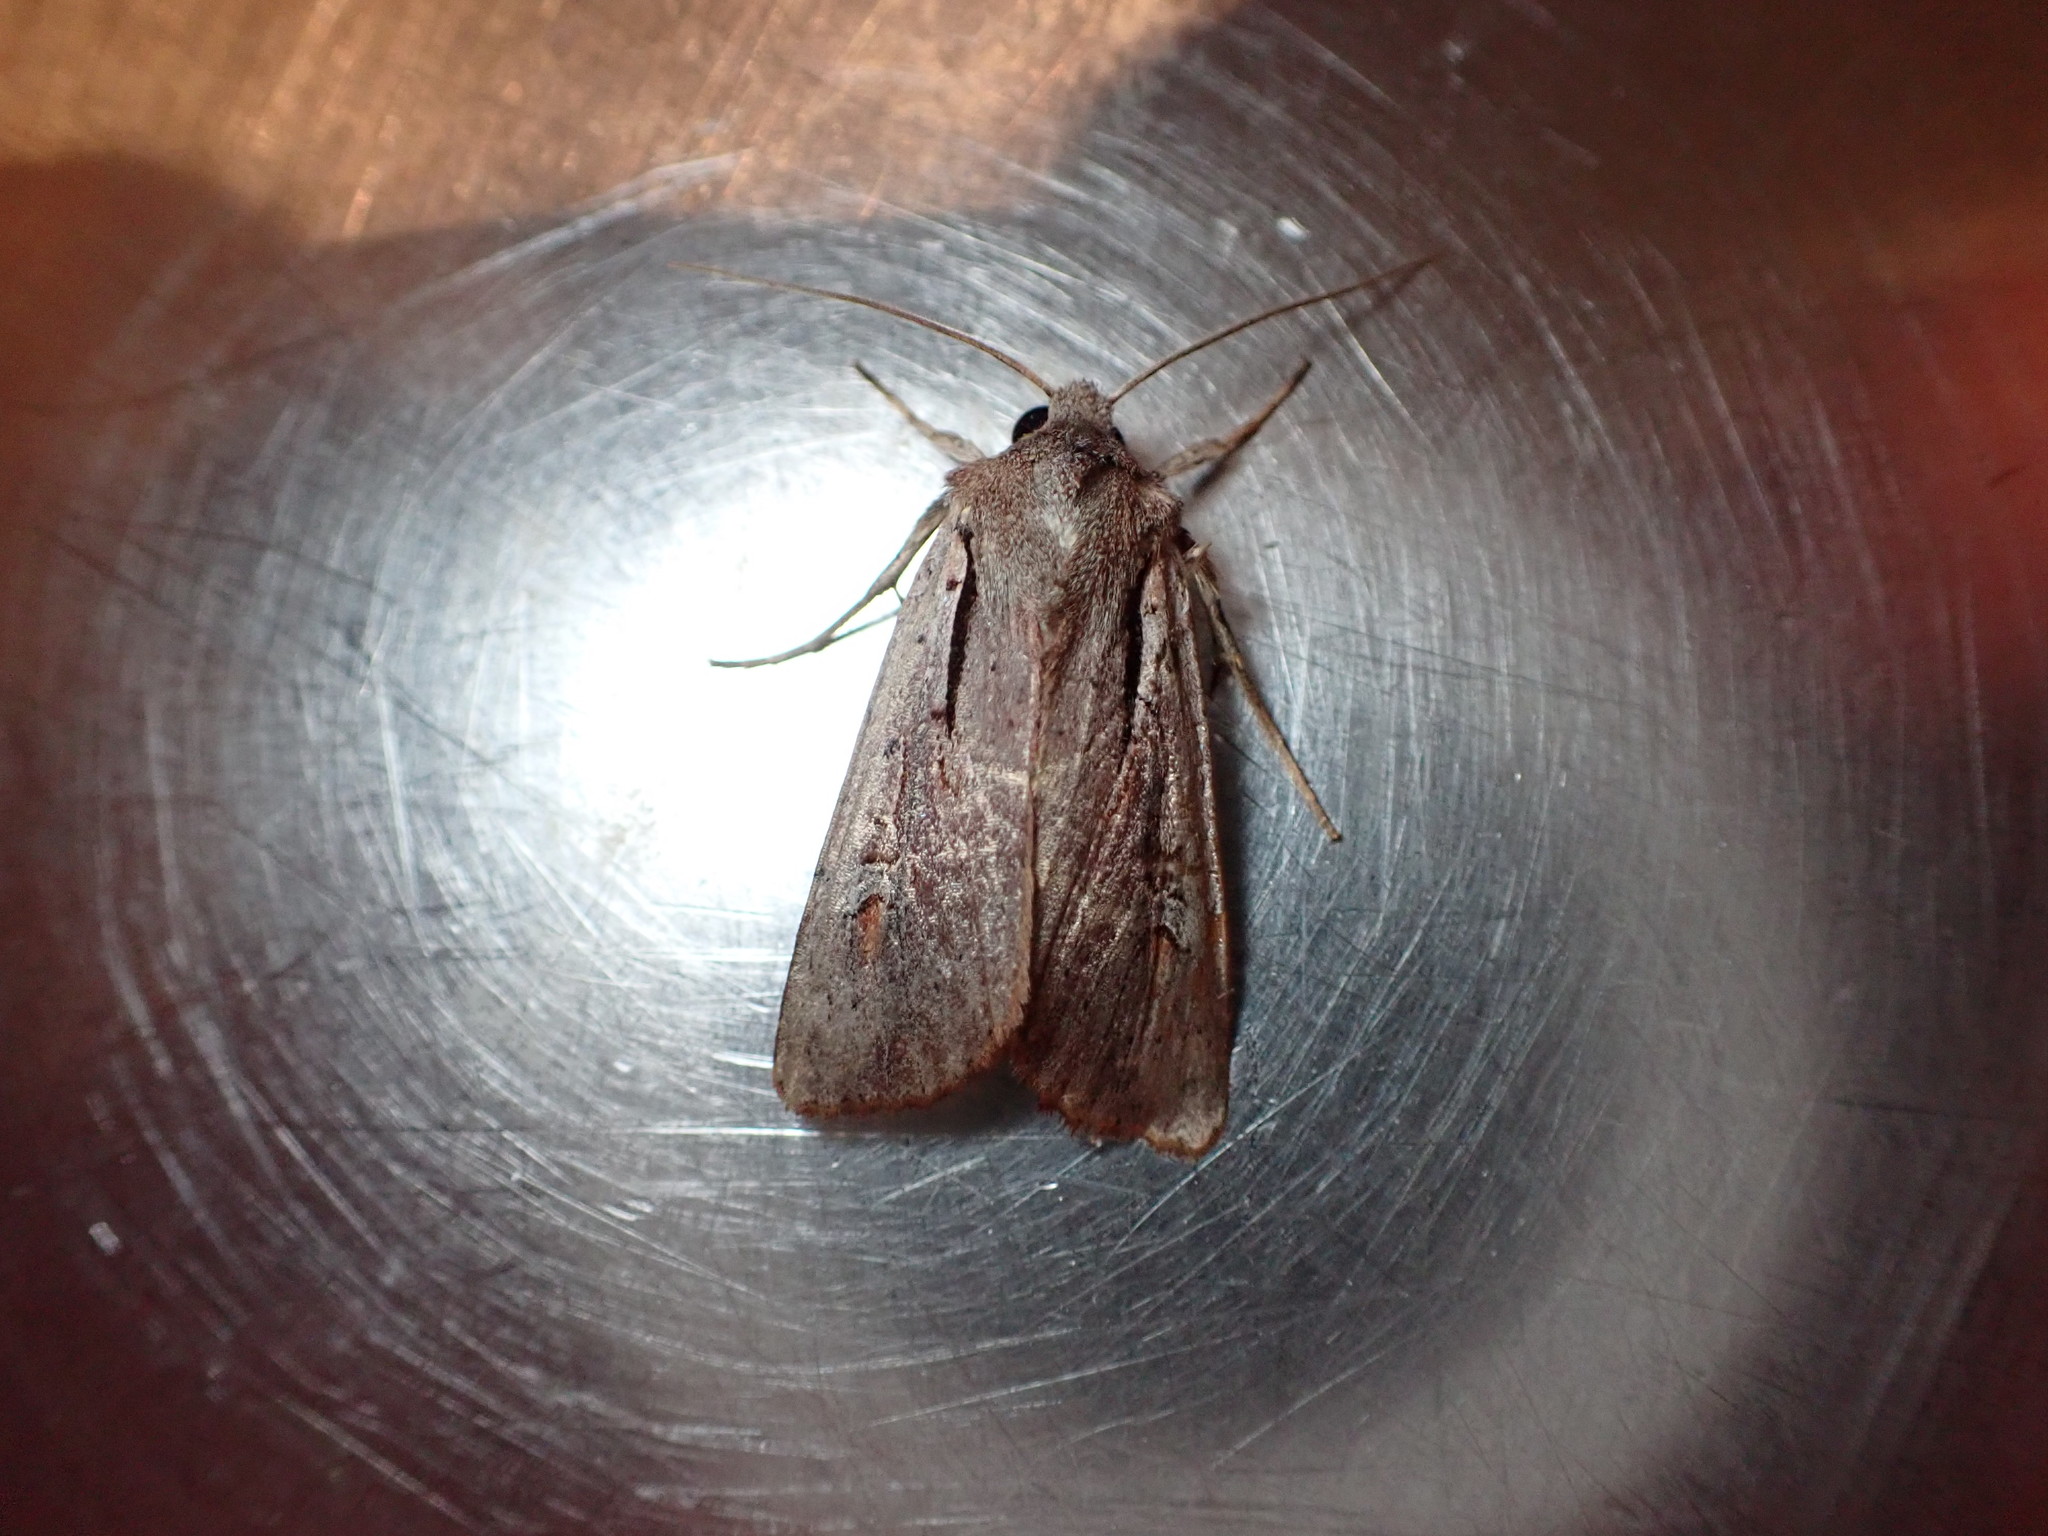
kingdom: Animalia
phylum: Arthropoda
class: Insecta
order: Lepidoptera
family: Noctuidae
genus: Ichneutica
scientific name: Ichneutica atristriga
